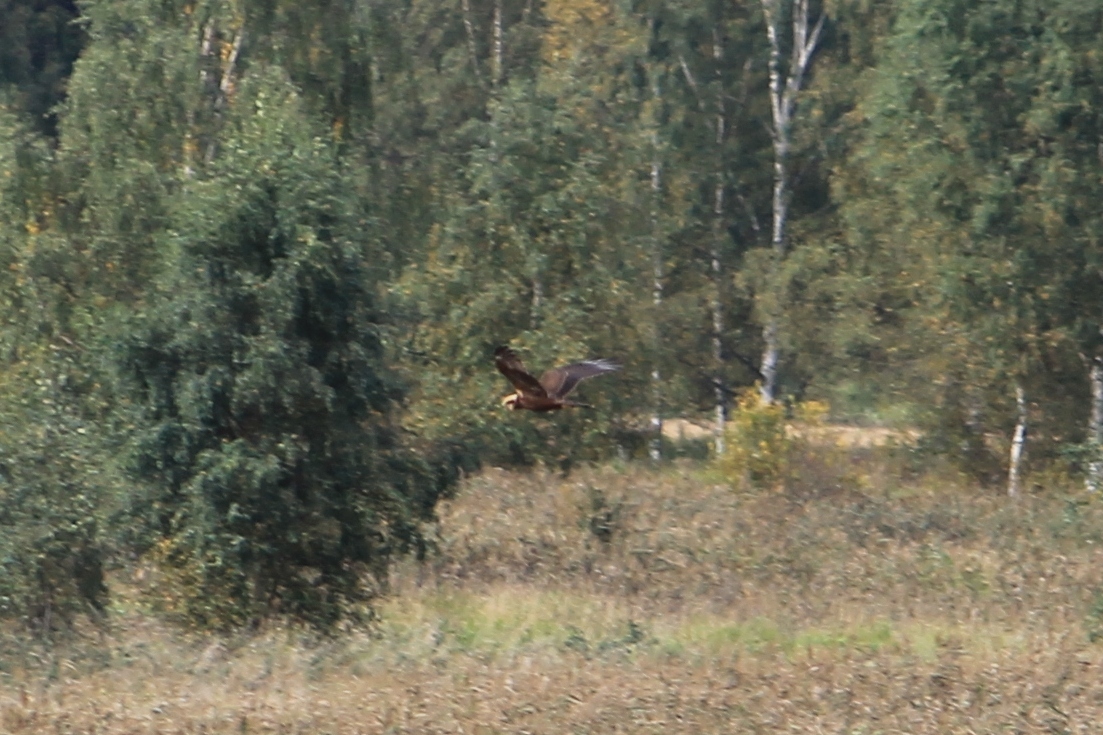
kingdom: Animalia
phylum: Chordata
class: Aves
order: Accipitriformes
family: Accipitridae
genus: Circus
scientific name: Circus aeruginosus
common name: Western marsh harrier
